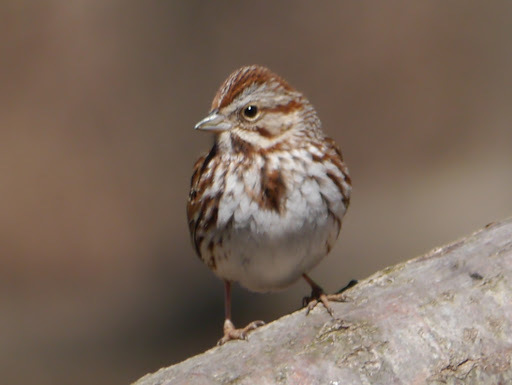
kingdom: Animalia
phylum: Chordata
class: Aves
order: Passeriformes
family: Passerellidae
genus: Melospiza
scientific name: Melospiza melodia
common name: Song sparrow
